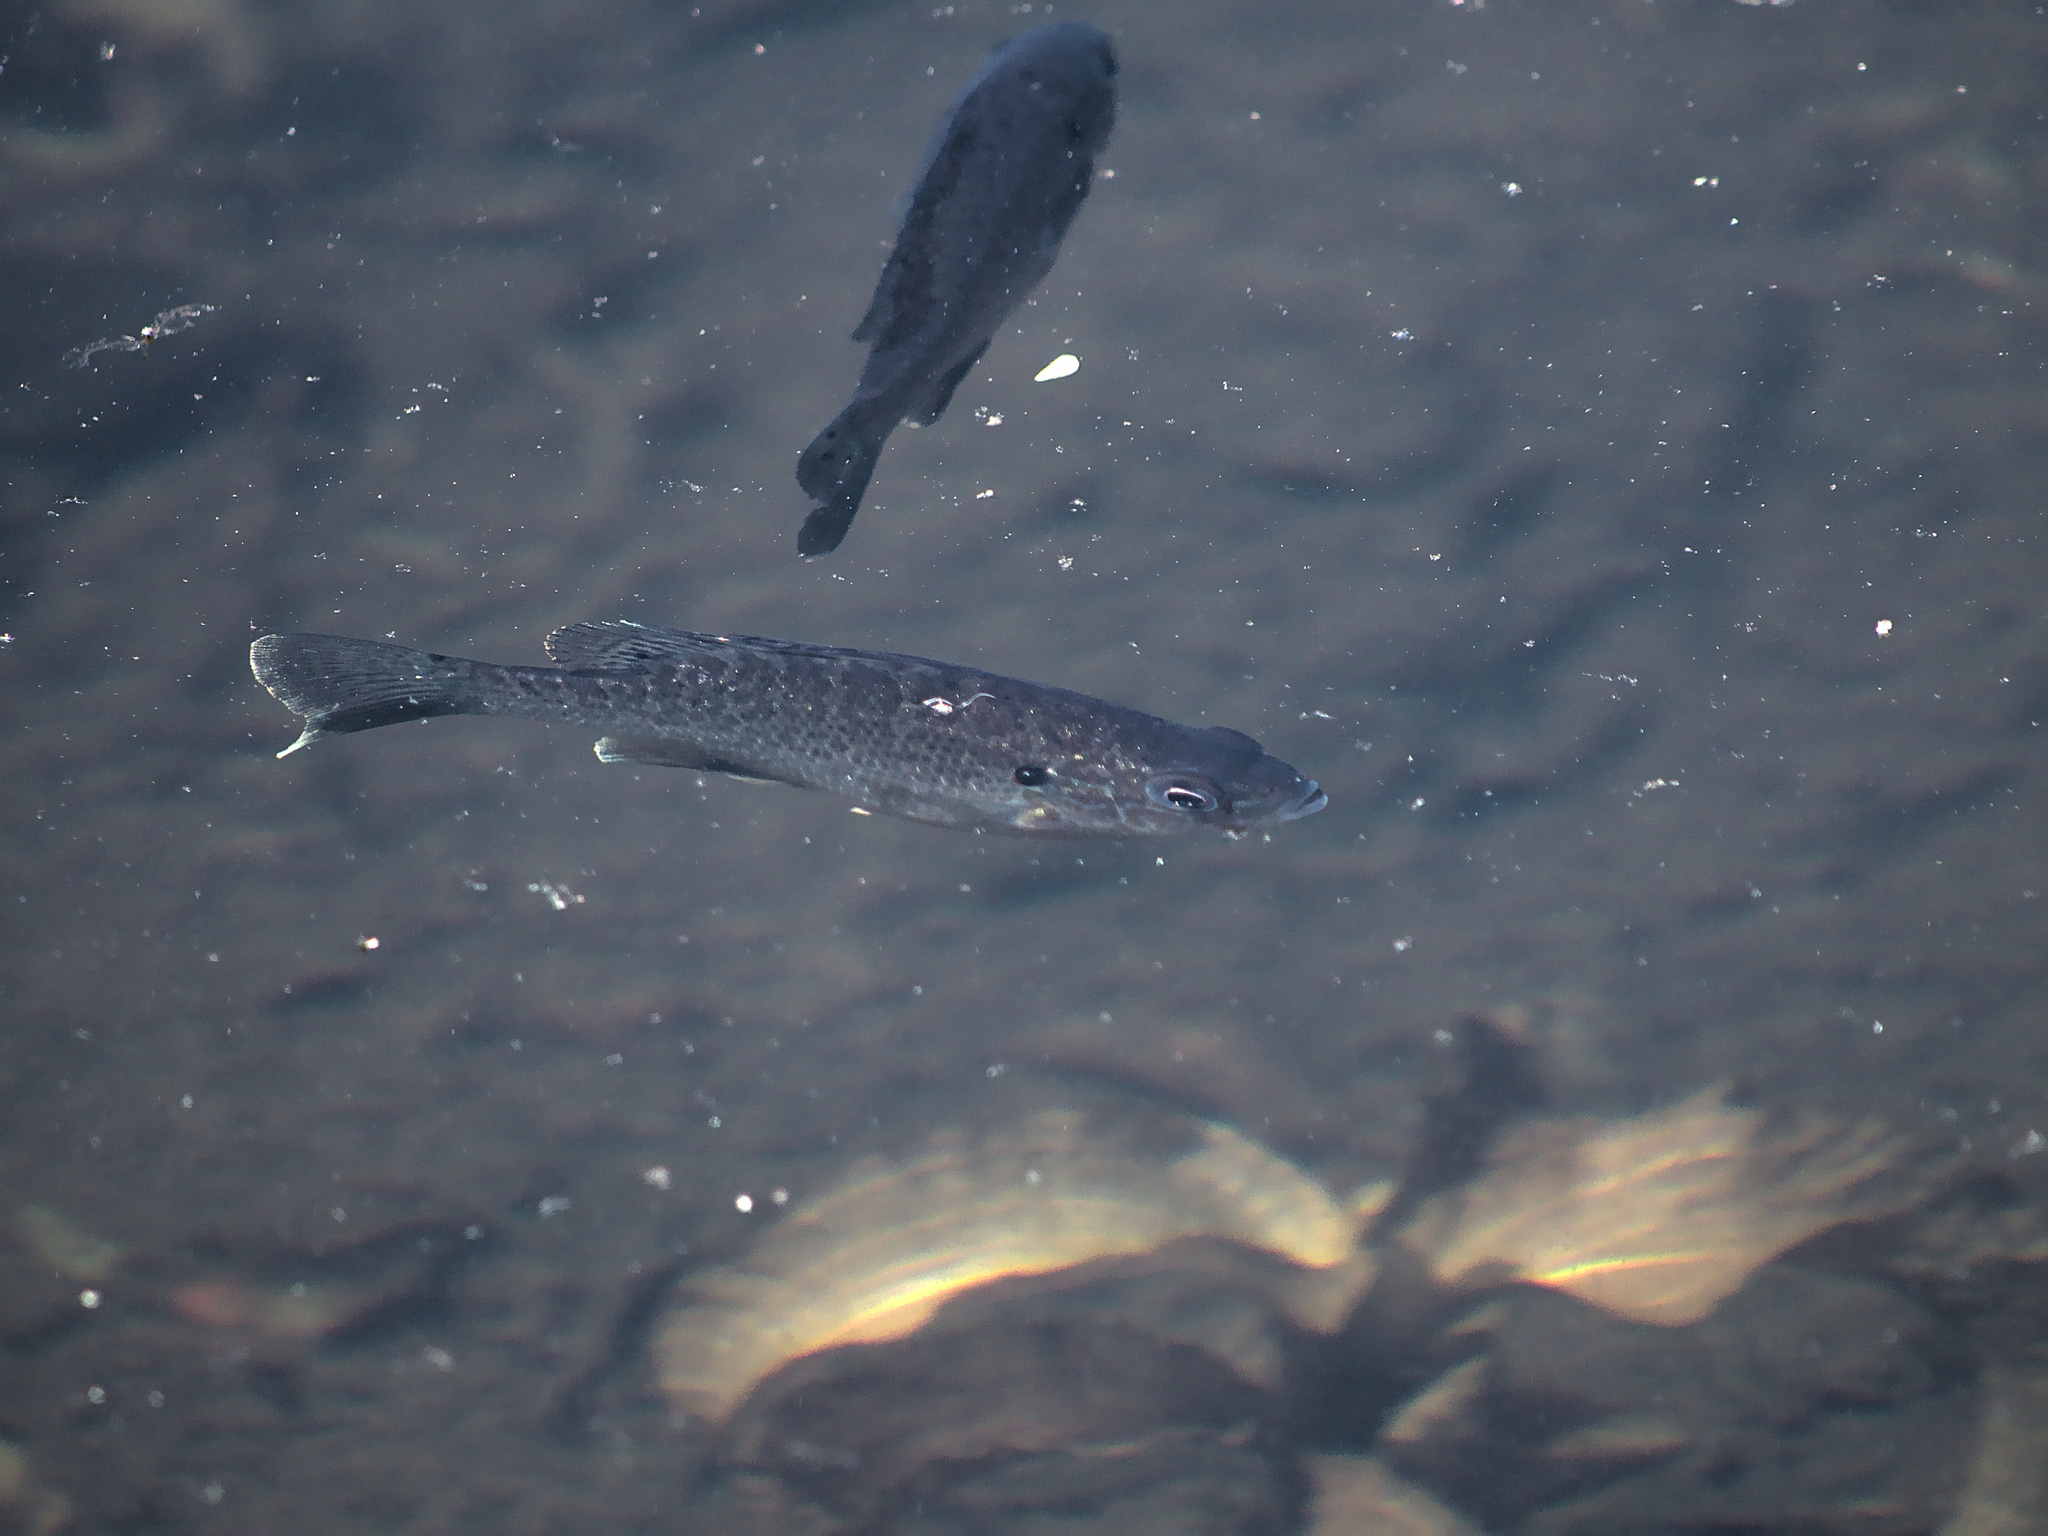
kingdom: Animalia
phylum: Chordata
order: Perciformes
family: Centrarchidae
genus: Lepomis
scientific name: Lepomis gibbosus
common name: Pumpkinseed
